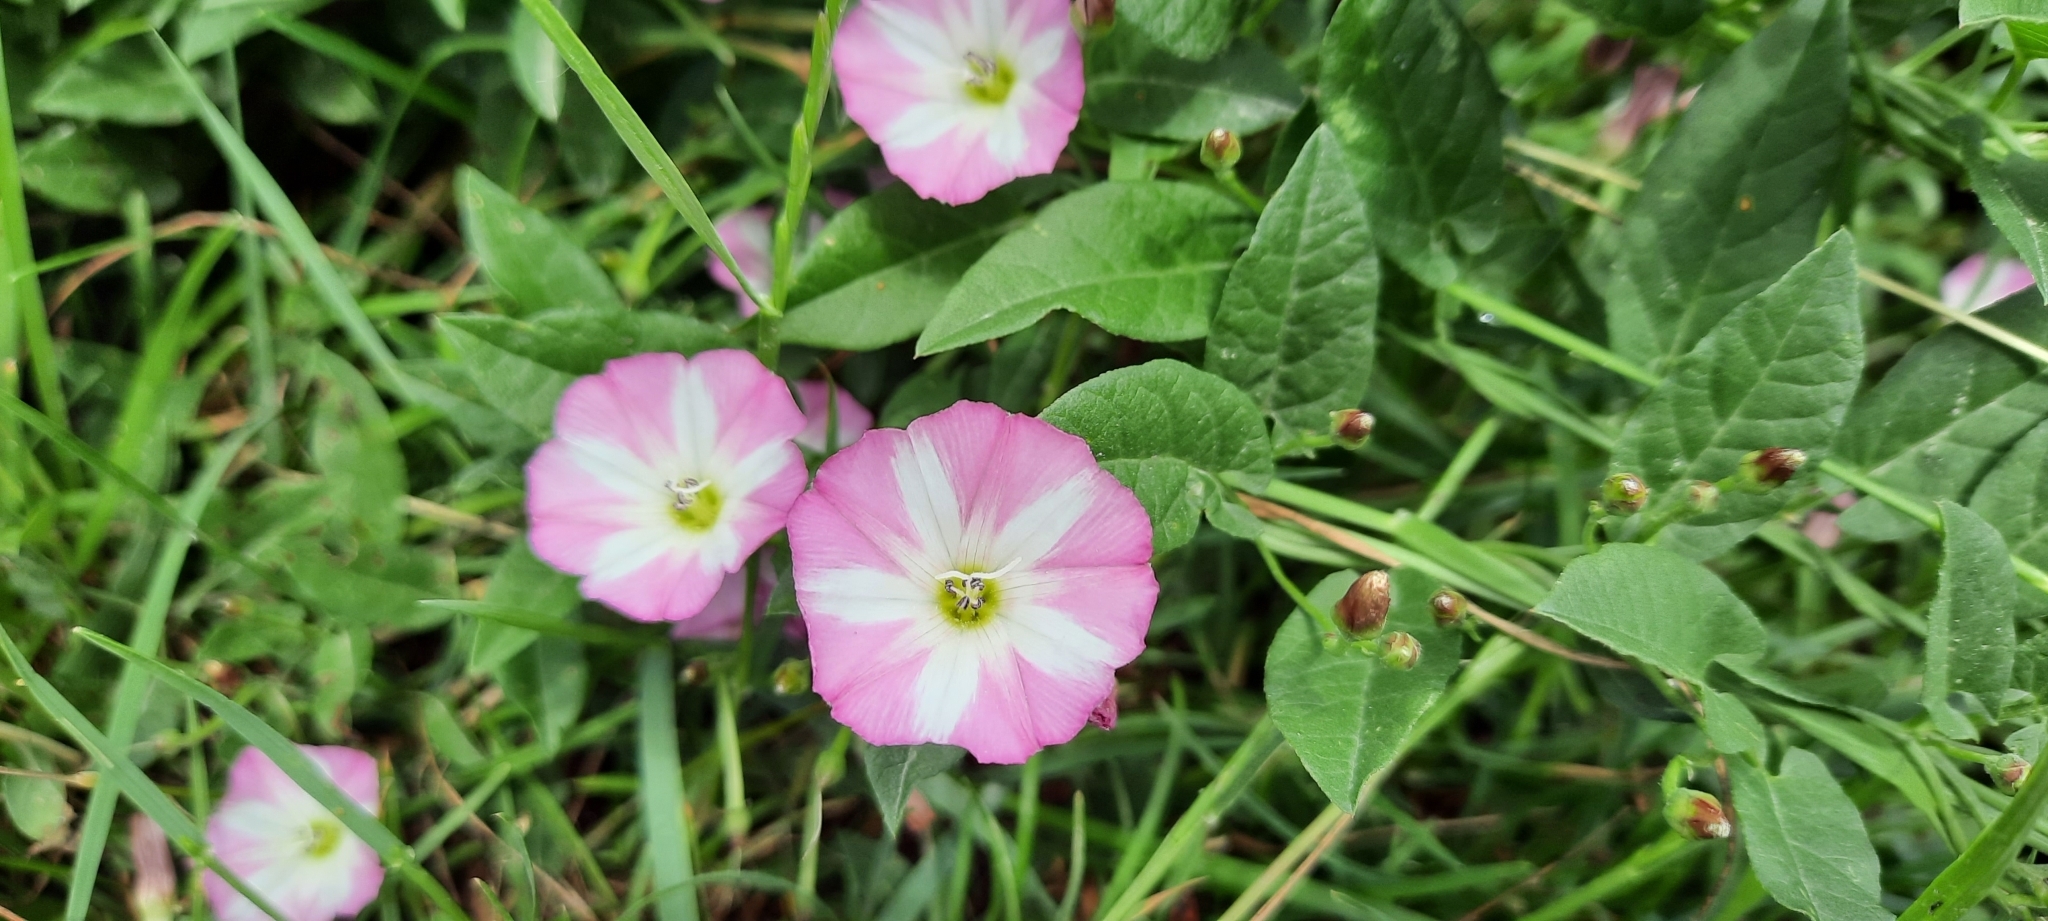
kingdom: Plantae
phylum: Tracheophyta
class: Magnoliopsida
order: Solanales
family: Convolvulaceae
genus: Convolvulus
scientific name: Convolvulus arvensis
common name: Field bindweed
